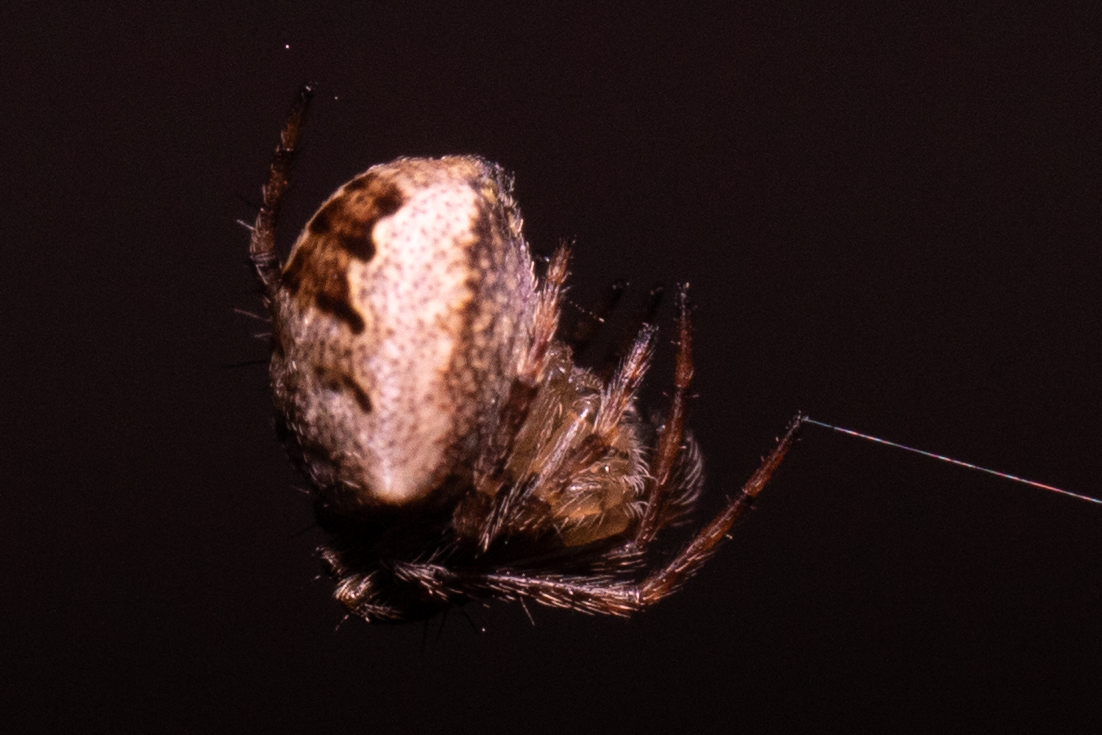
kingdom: Animalia
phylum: Arthropoda
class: Arachnida
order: Araneae
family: Araneidae
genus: Zilla
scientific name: Zilla diodia
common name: Zilla diodia
